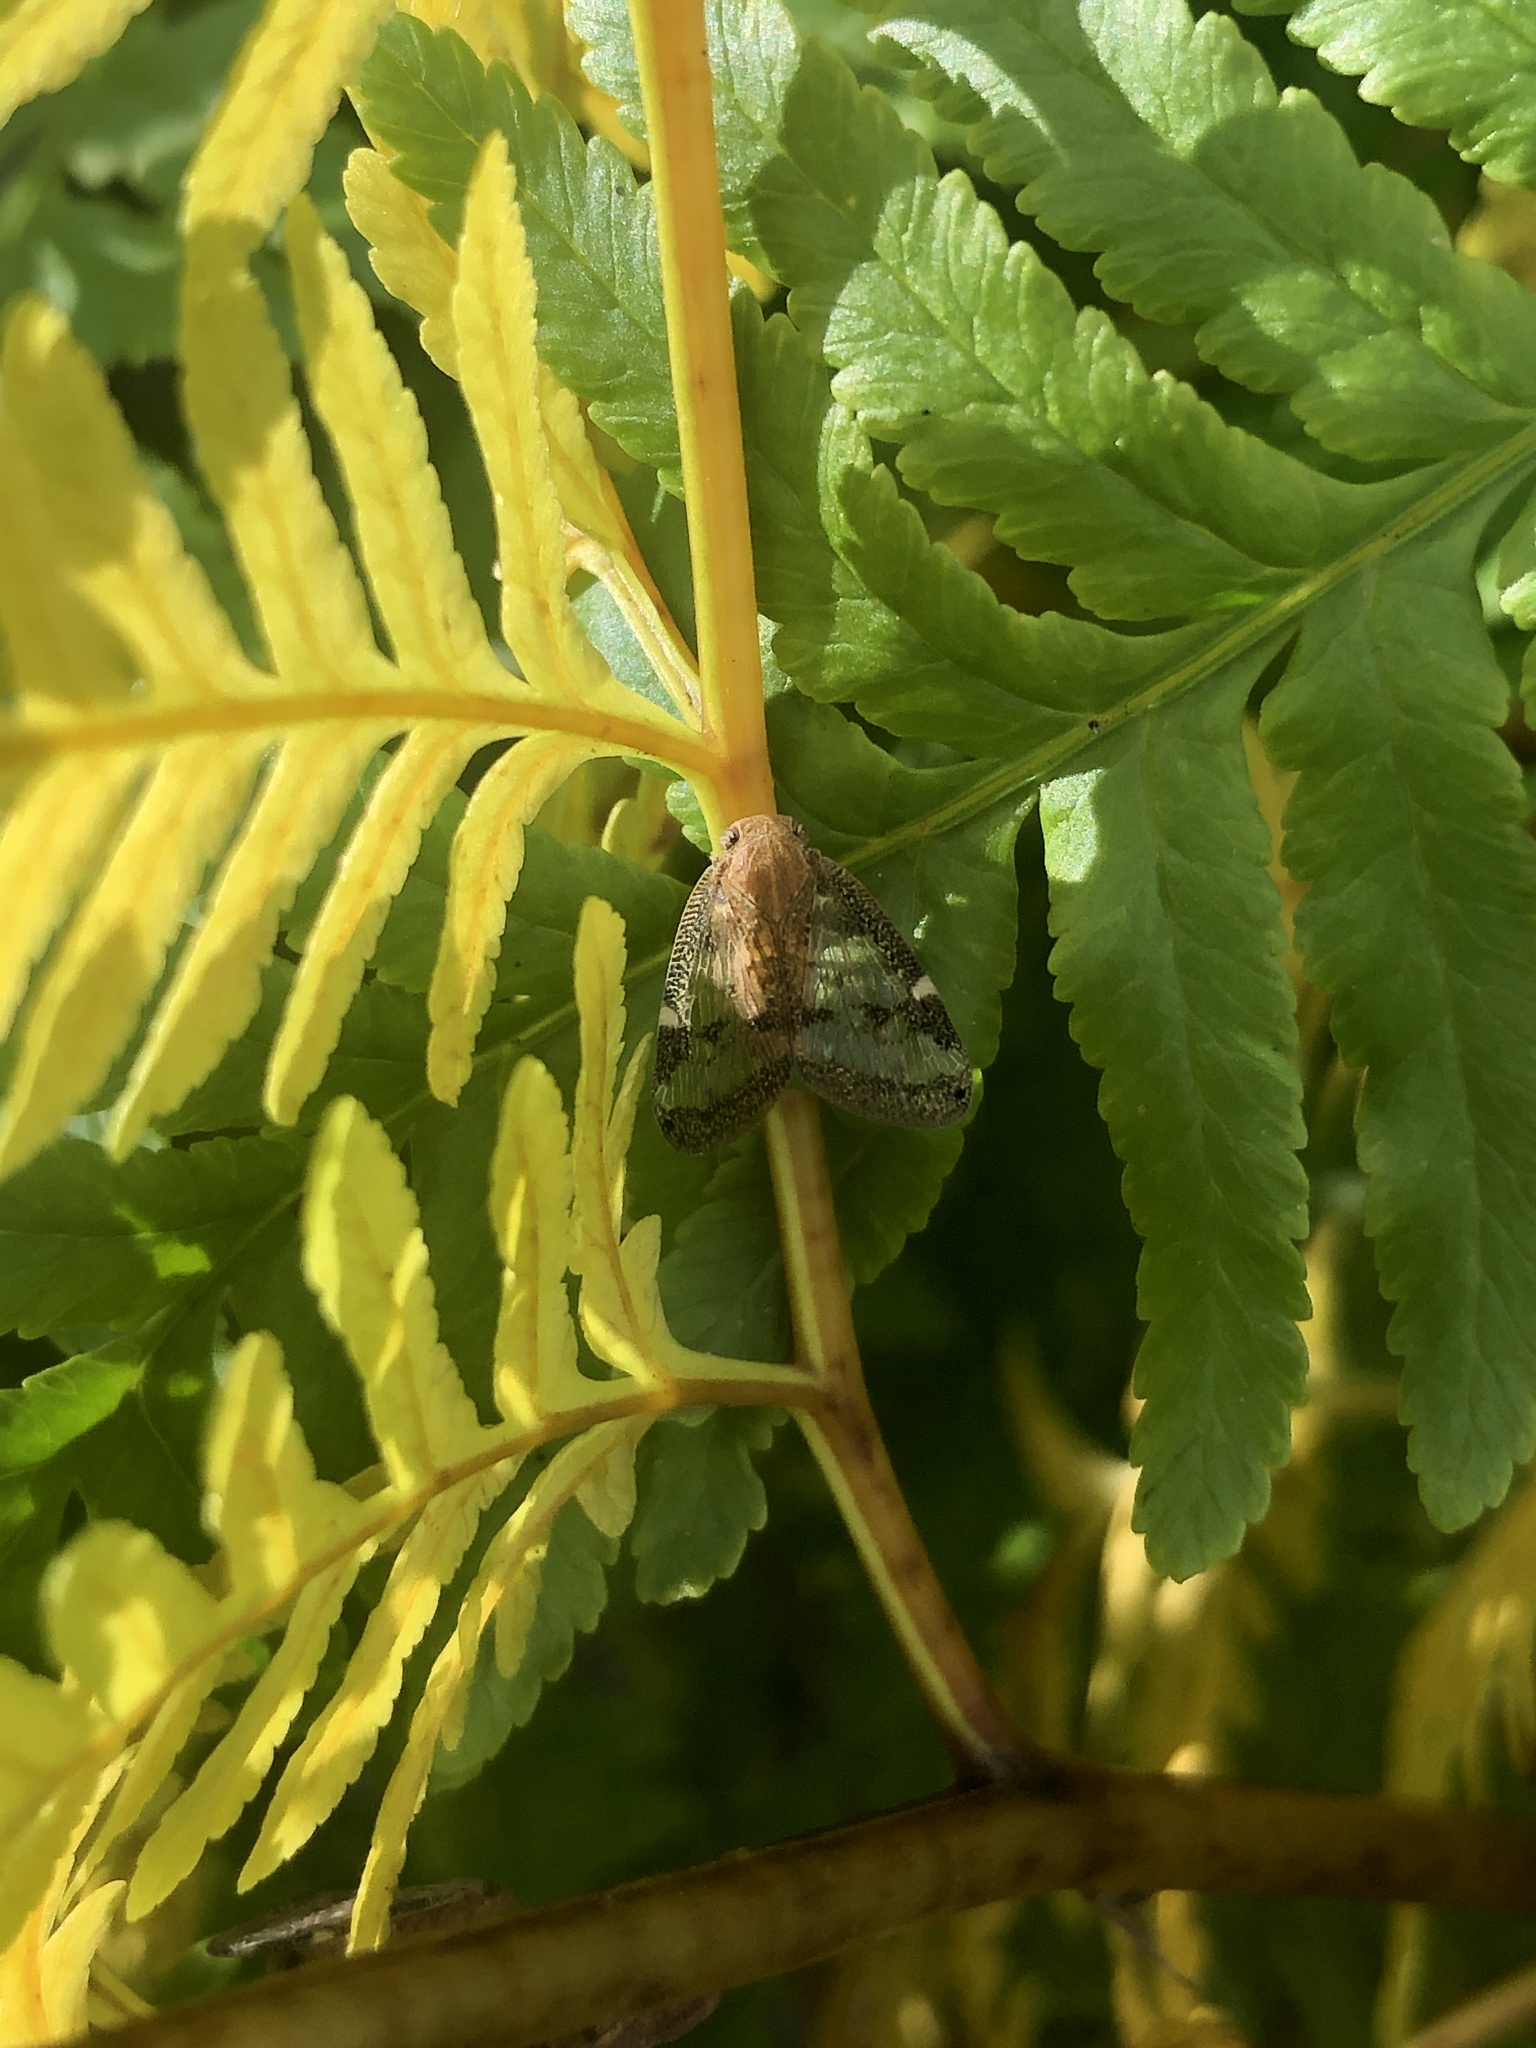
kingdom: Animalia
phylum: Arthropoda
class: Insecta
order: Hemiptera
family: Ricaniidae
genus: Scolypopa
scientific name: Scolypopa australis
